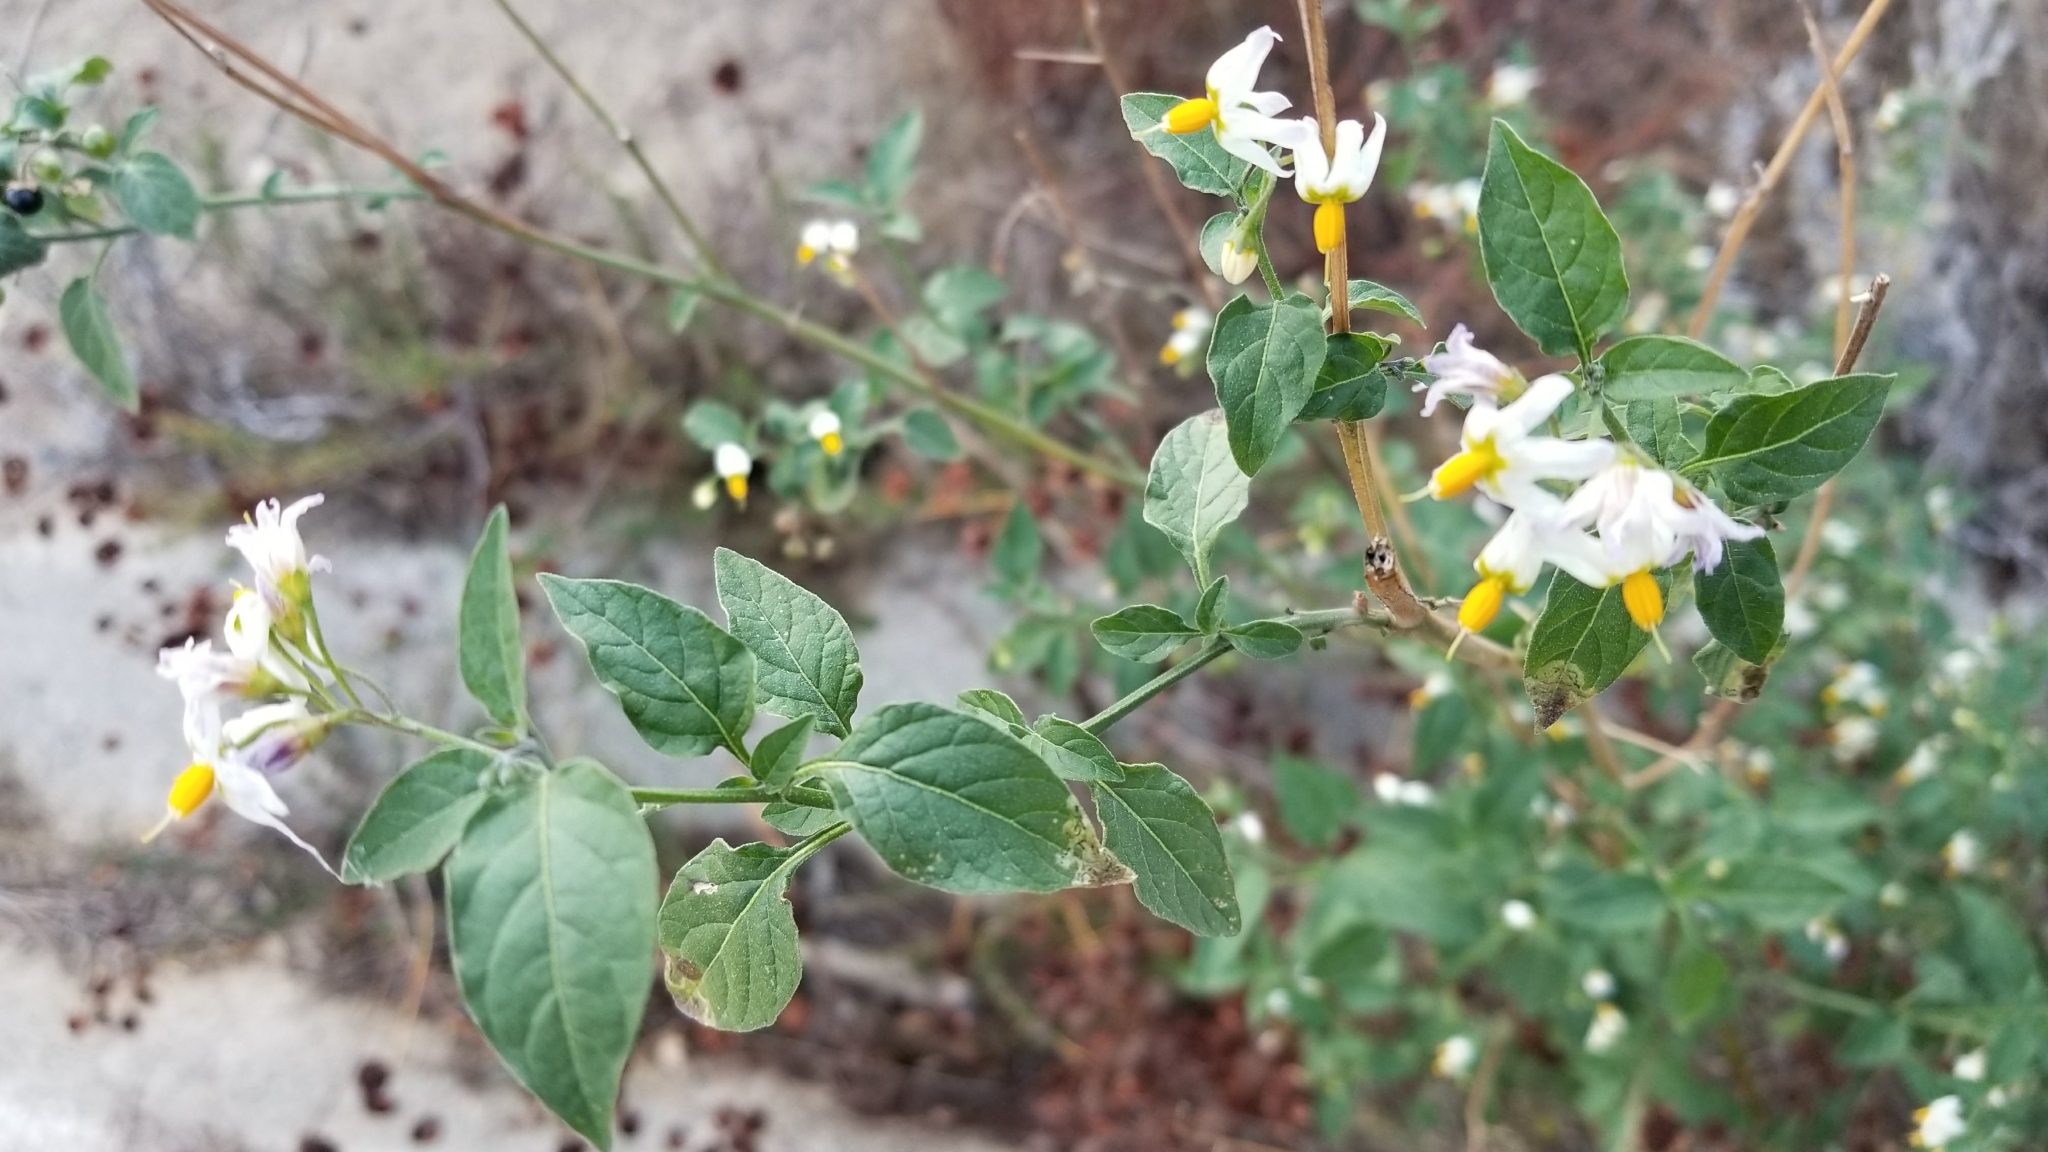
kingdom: Plantae
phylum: Tracheophyta
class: Magnoliopsida
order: Solanales
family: Solanaceae
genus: Solanum
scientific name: Solanum douglasii
